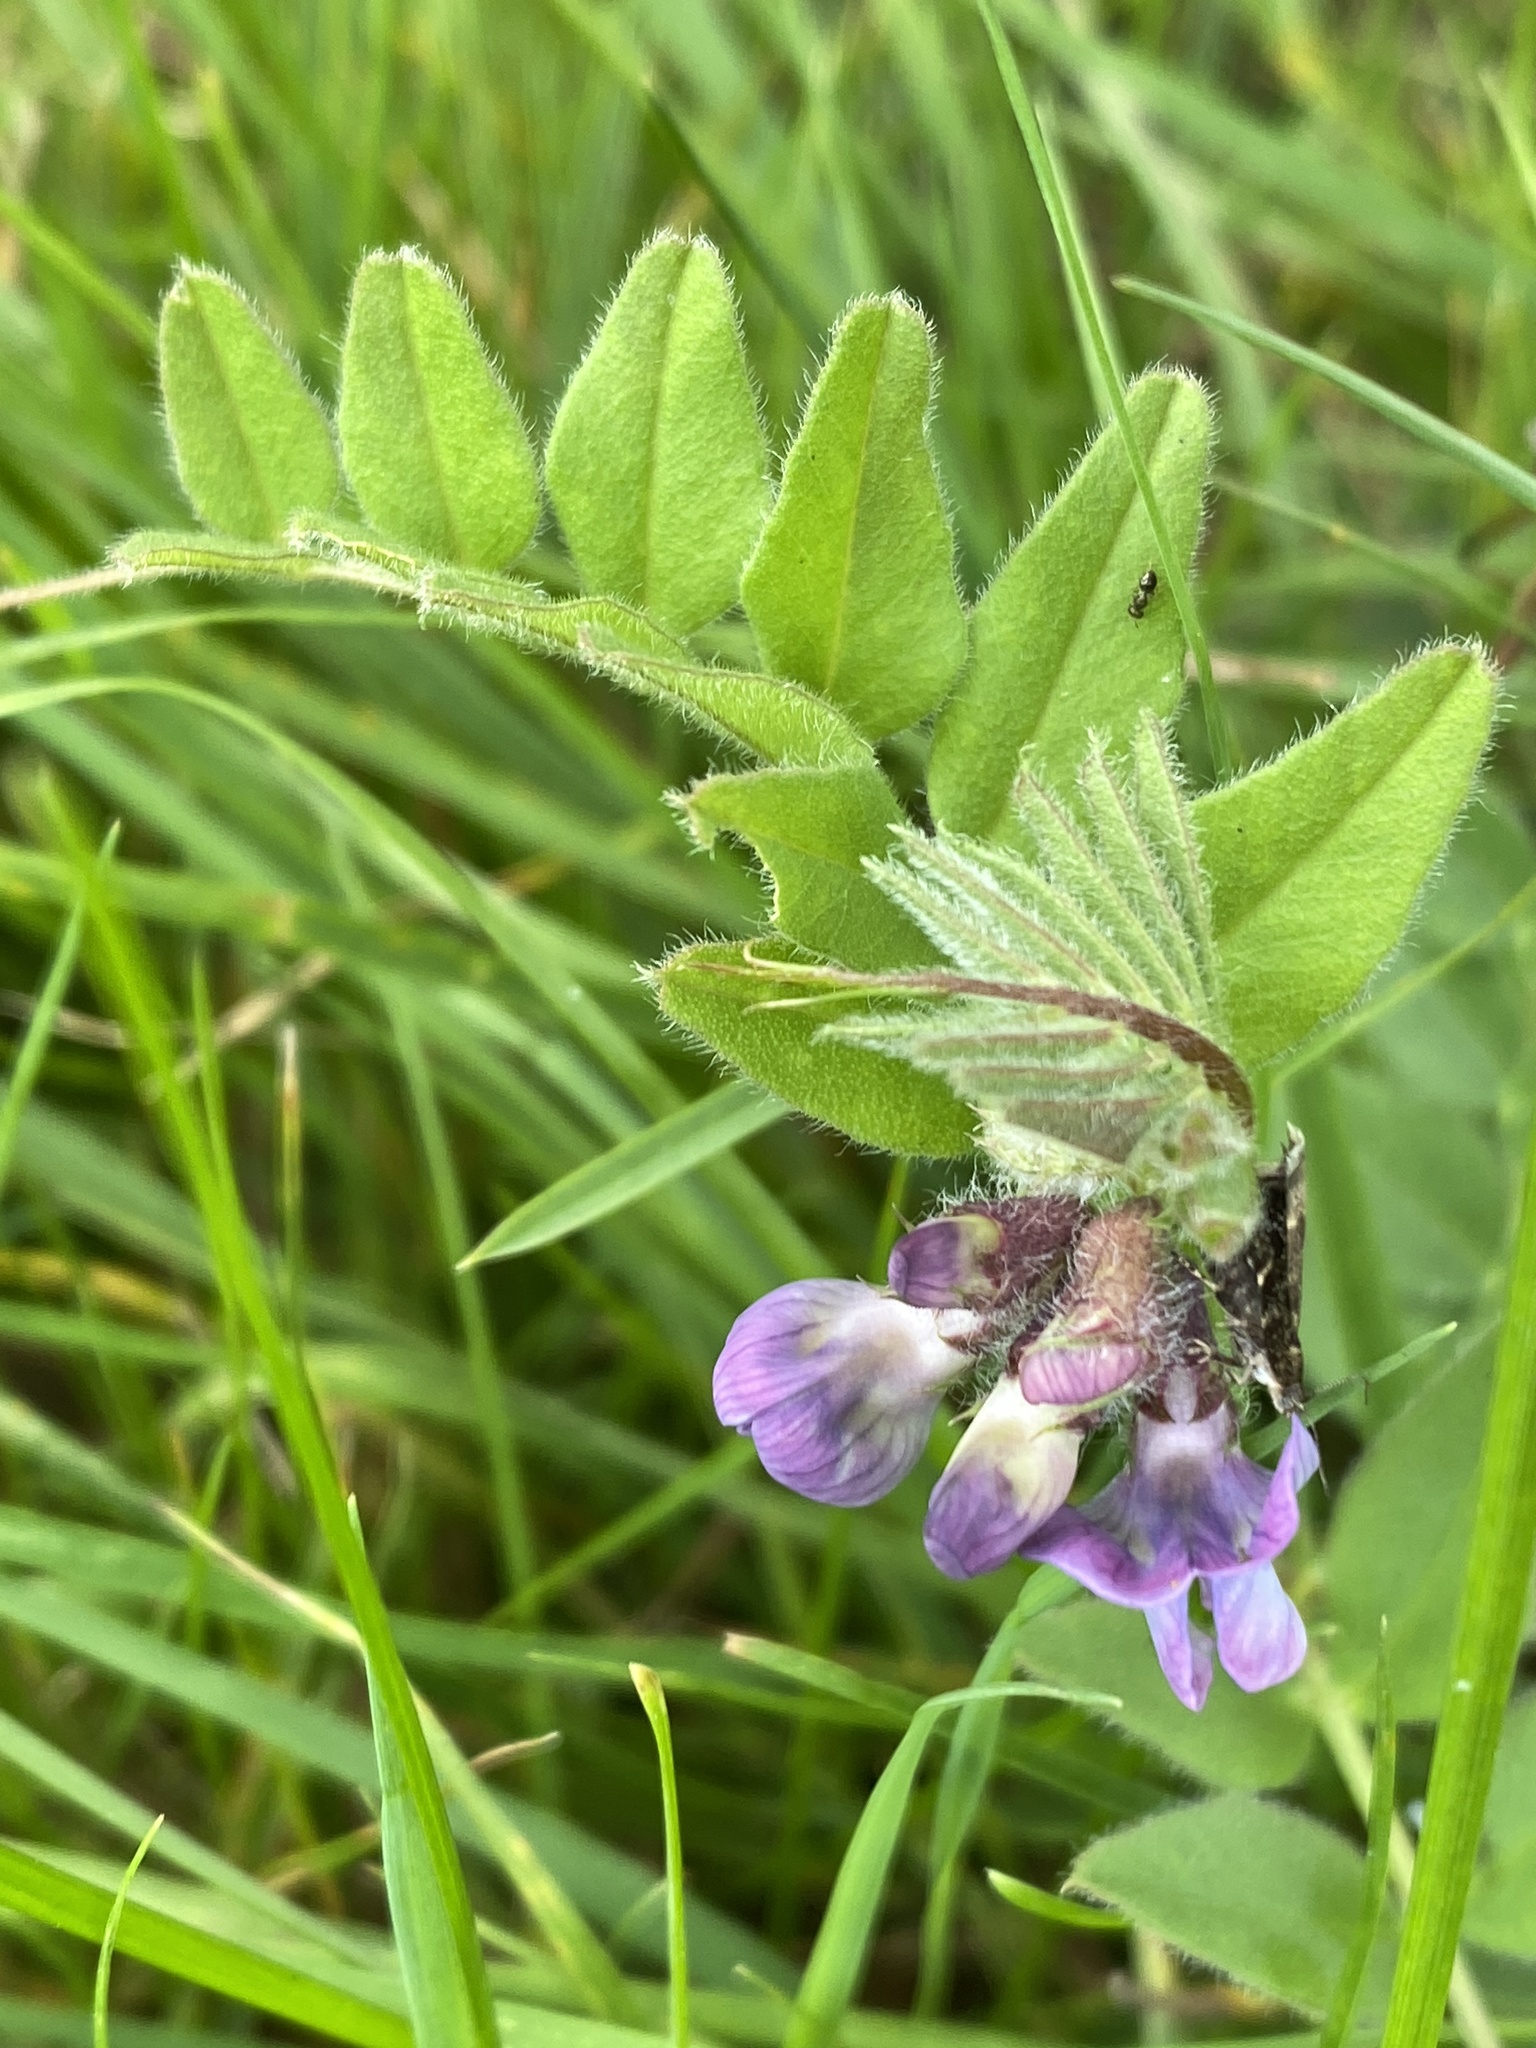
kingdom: Plantae
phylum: Tracheophyta
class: Magnoliopsida
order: Fabales
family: Fabaceae
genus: Vicia
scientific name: Vicia sepium
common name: Bush vetch
